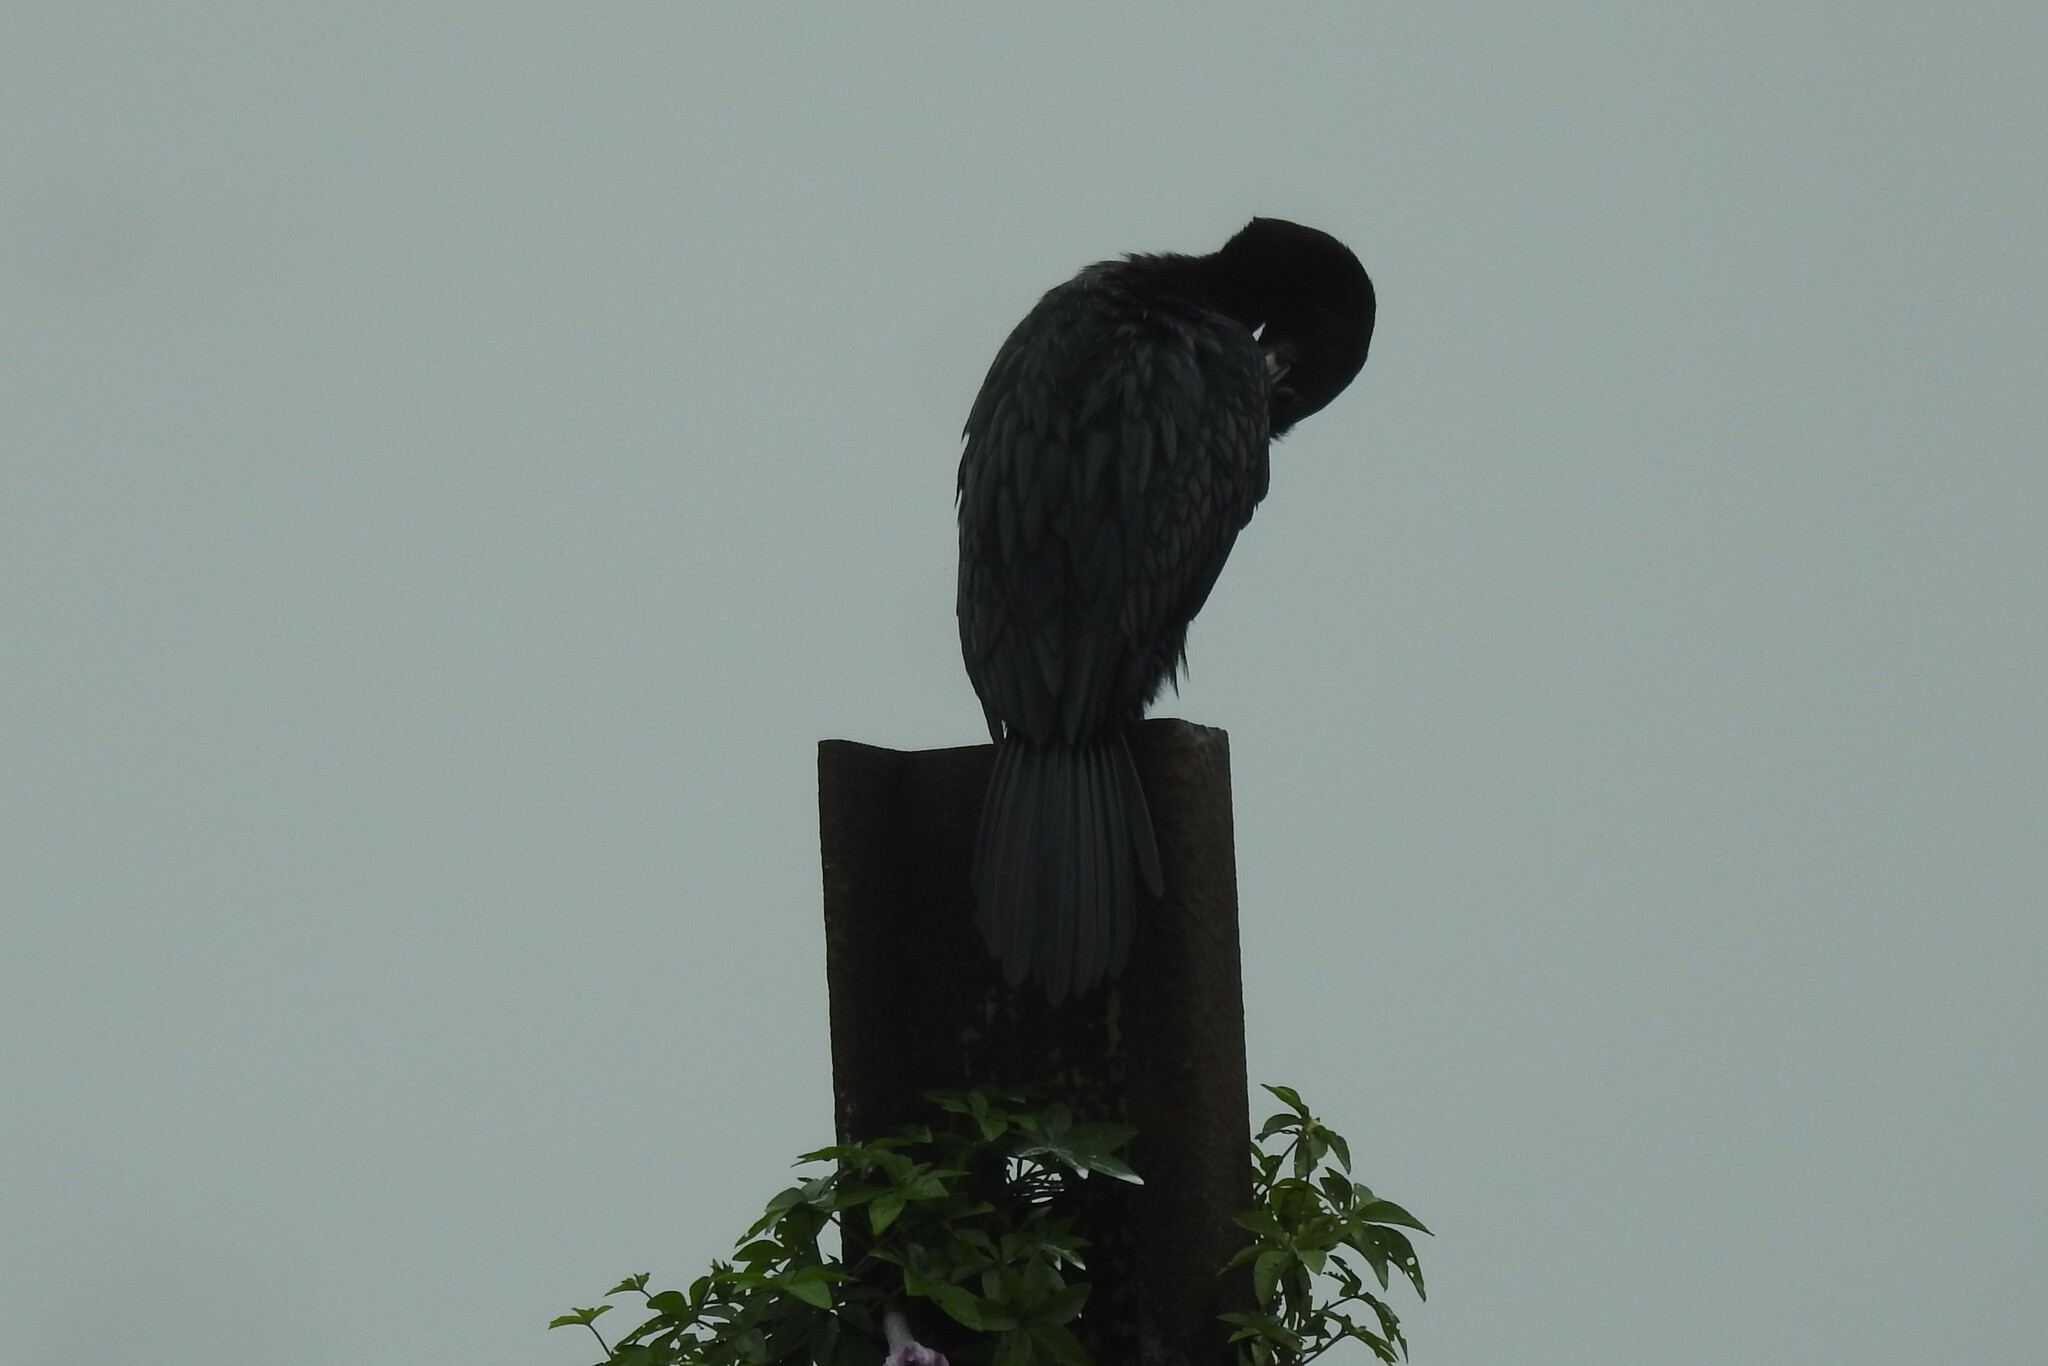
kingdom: Animalia
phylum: Chordata
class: Aves
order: Suliformes
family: Phalacrocoracidae
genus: Microcarbo
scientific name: Microcarbo niger
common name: Little cormorant
